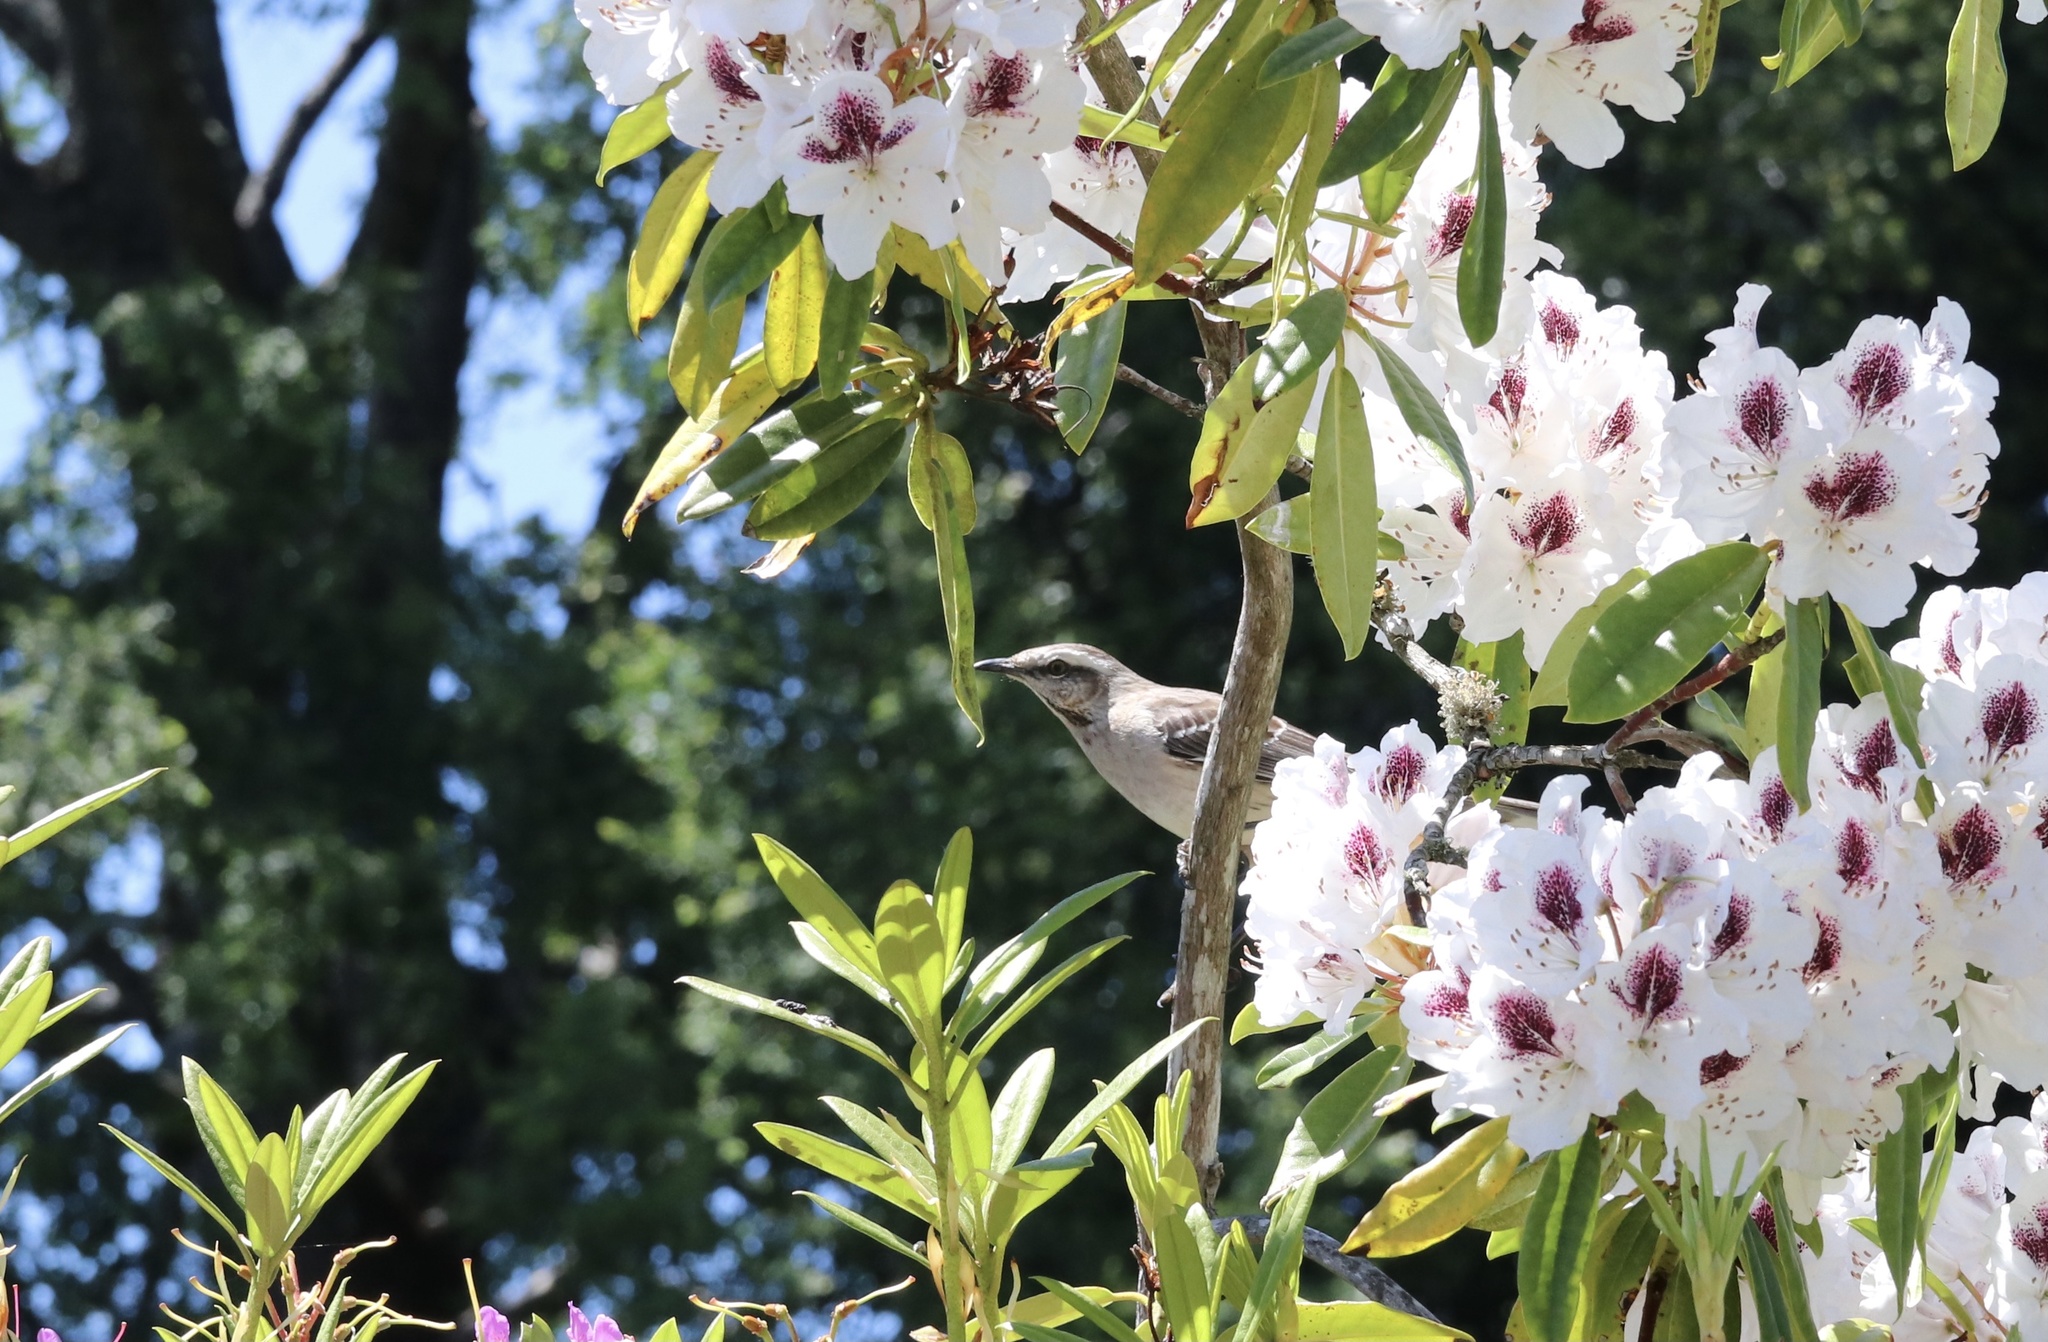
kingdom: Animalia
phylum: Chordata
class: Aves
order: Passeriformes
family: Mimidae
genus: Mimus
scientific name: Mimus thenca
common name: Chilean mockingbird
